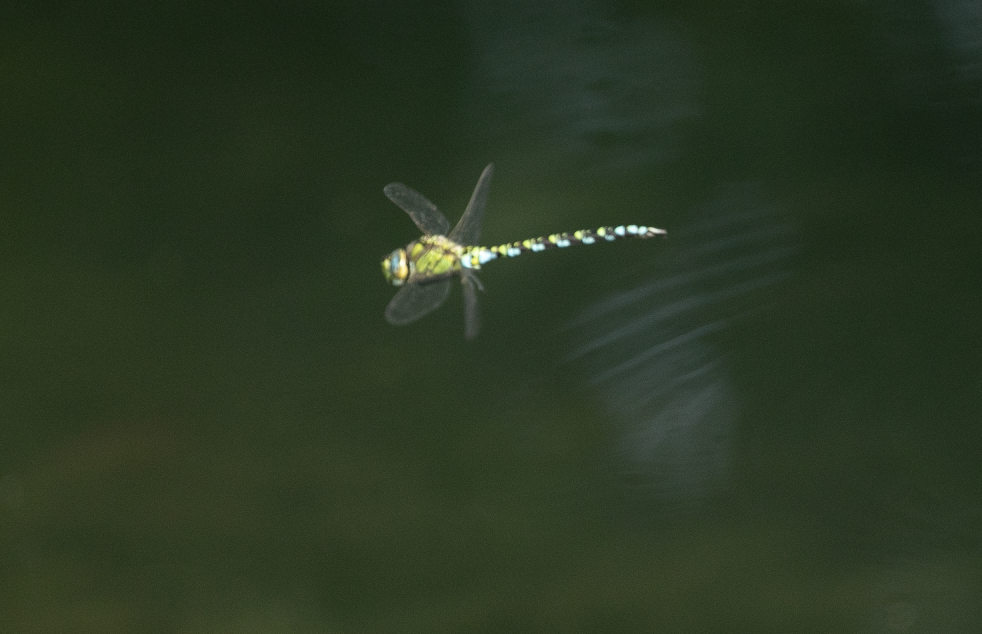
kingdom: Animalia
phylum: Arthropoda
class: Insecta
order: Odonata
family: Aeshnidae
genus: Aeshna
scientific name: Aeshna cyanea
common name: Southern hawker
